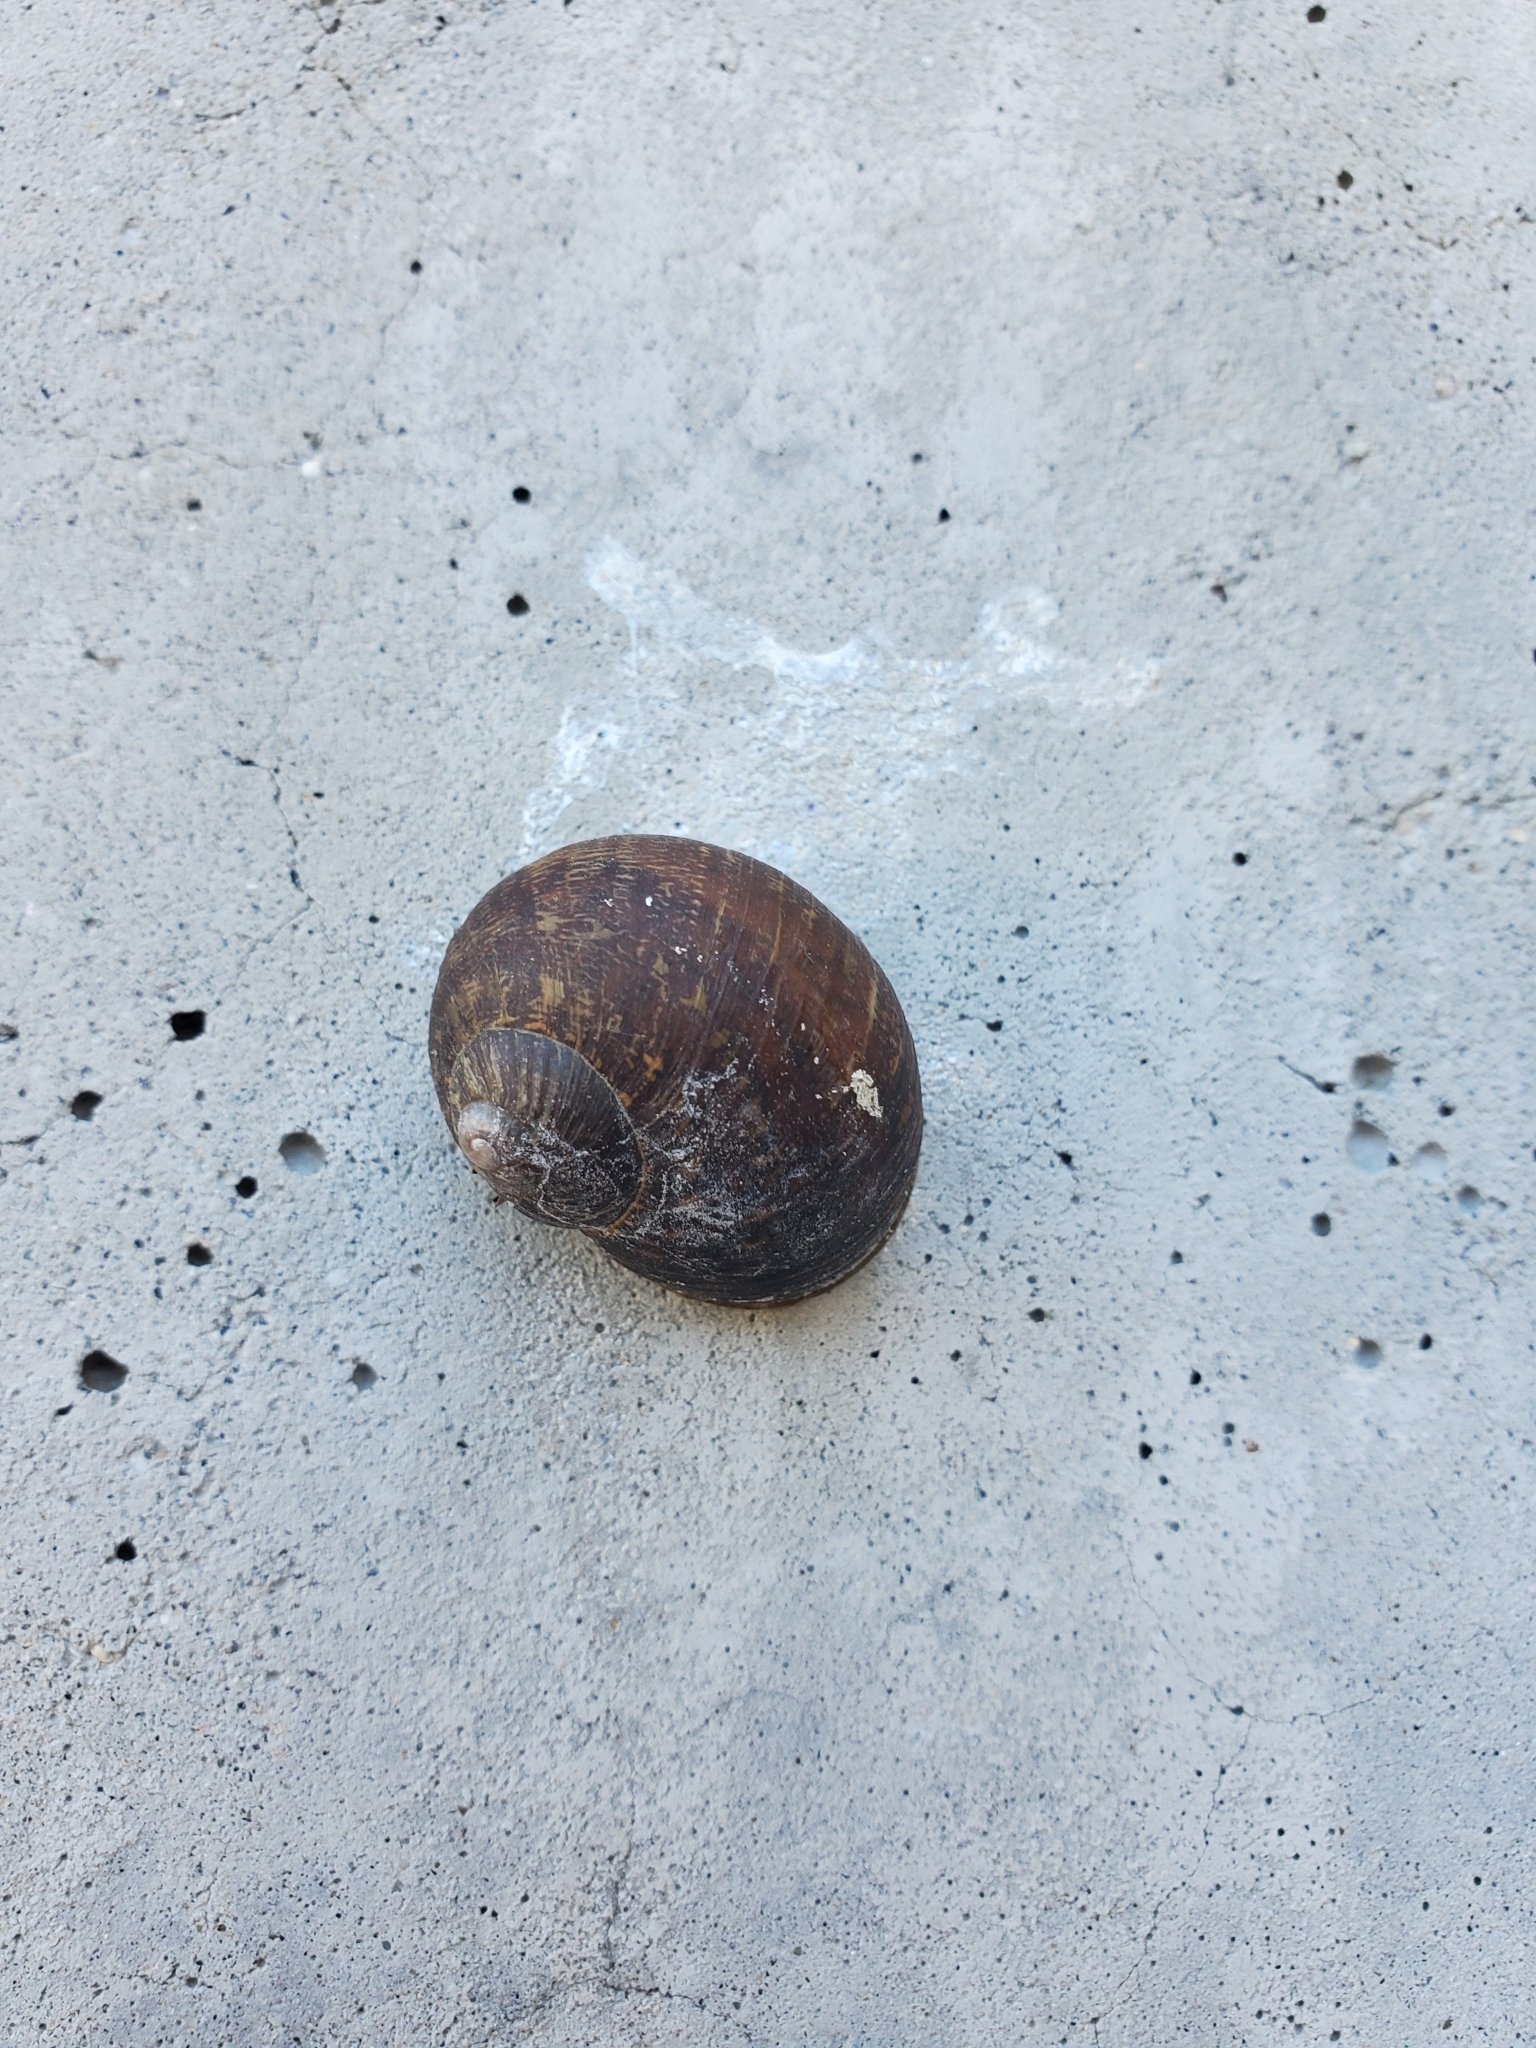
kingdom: Animalia
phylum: Mollusca
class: Gastropoda
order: Stylommatophora
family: Helicidae
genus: Cornu
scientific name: Cornu aspersum
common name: Brown garden snail
